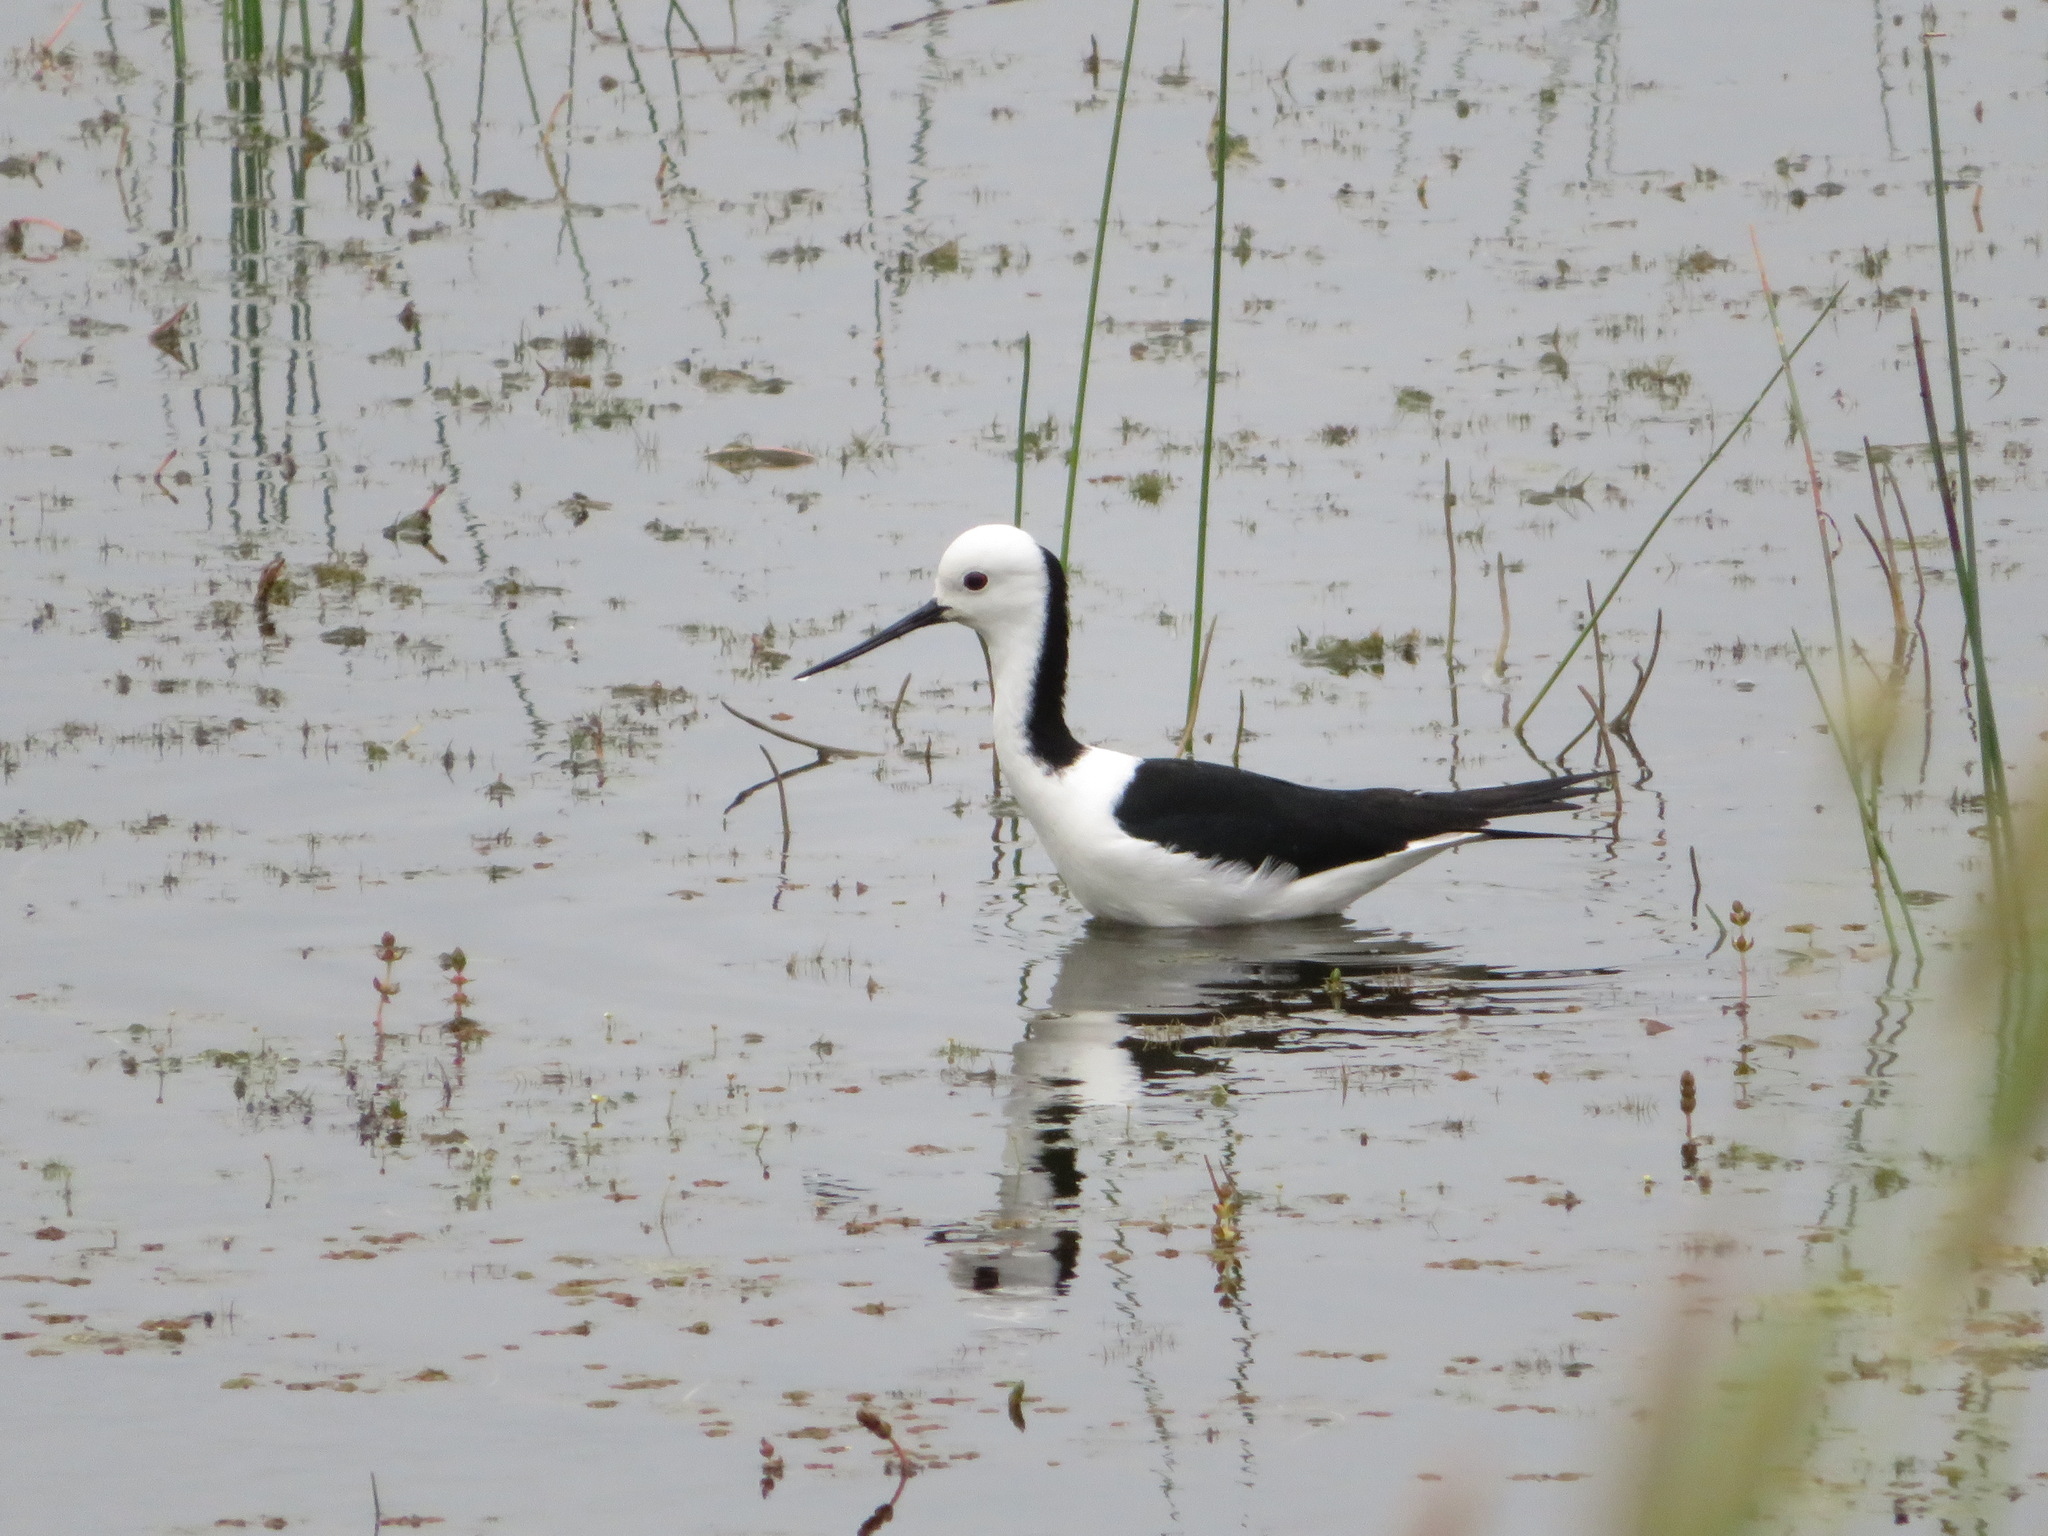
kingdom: Animalia
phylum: Chordata
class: Aves
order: Charadriiformes
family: Recurvirostridae
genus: Himantopus
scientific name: Himantopus leucocephalus
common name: White-headed stilt
